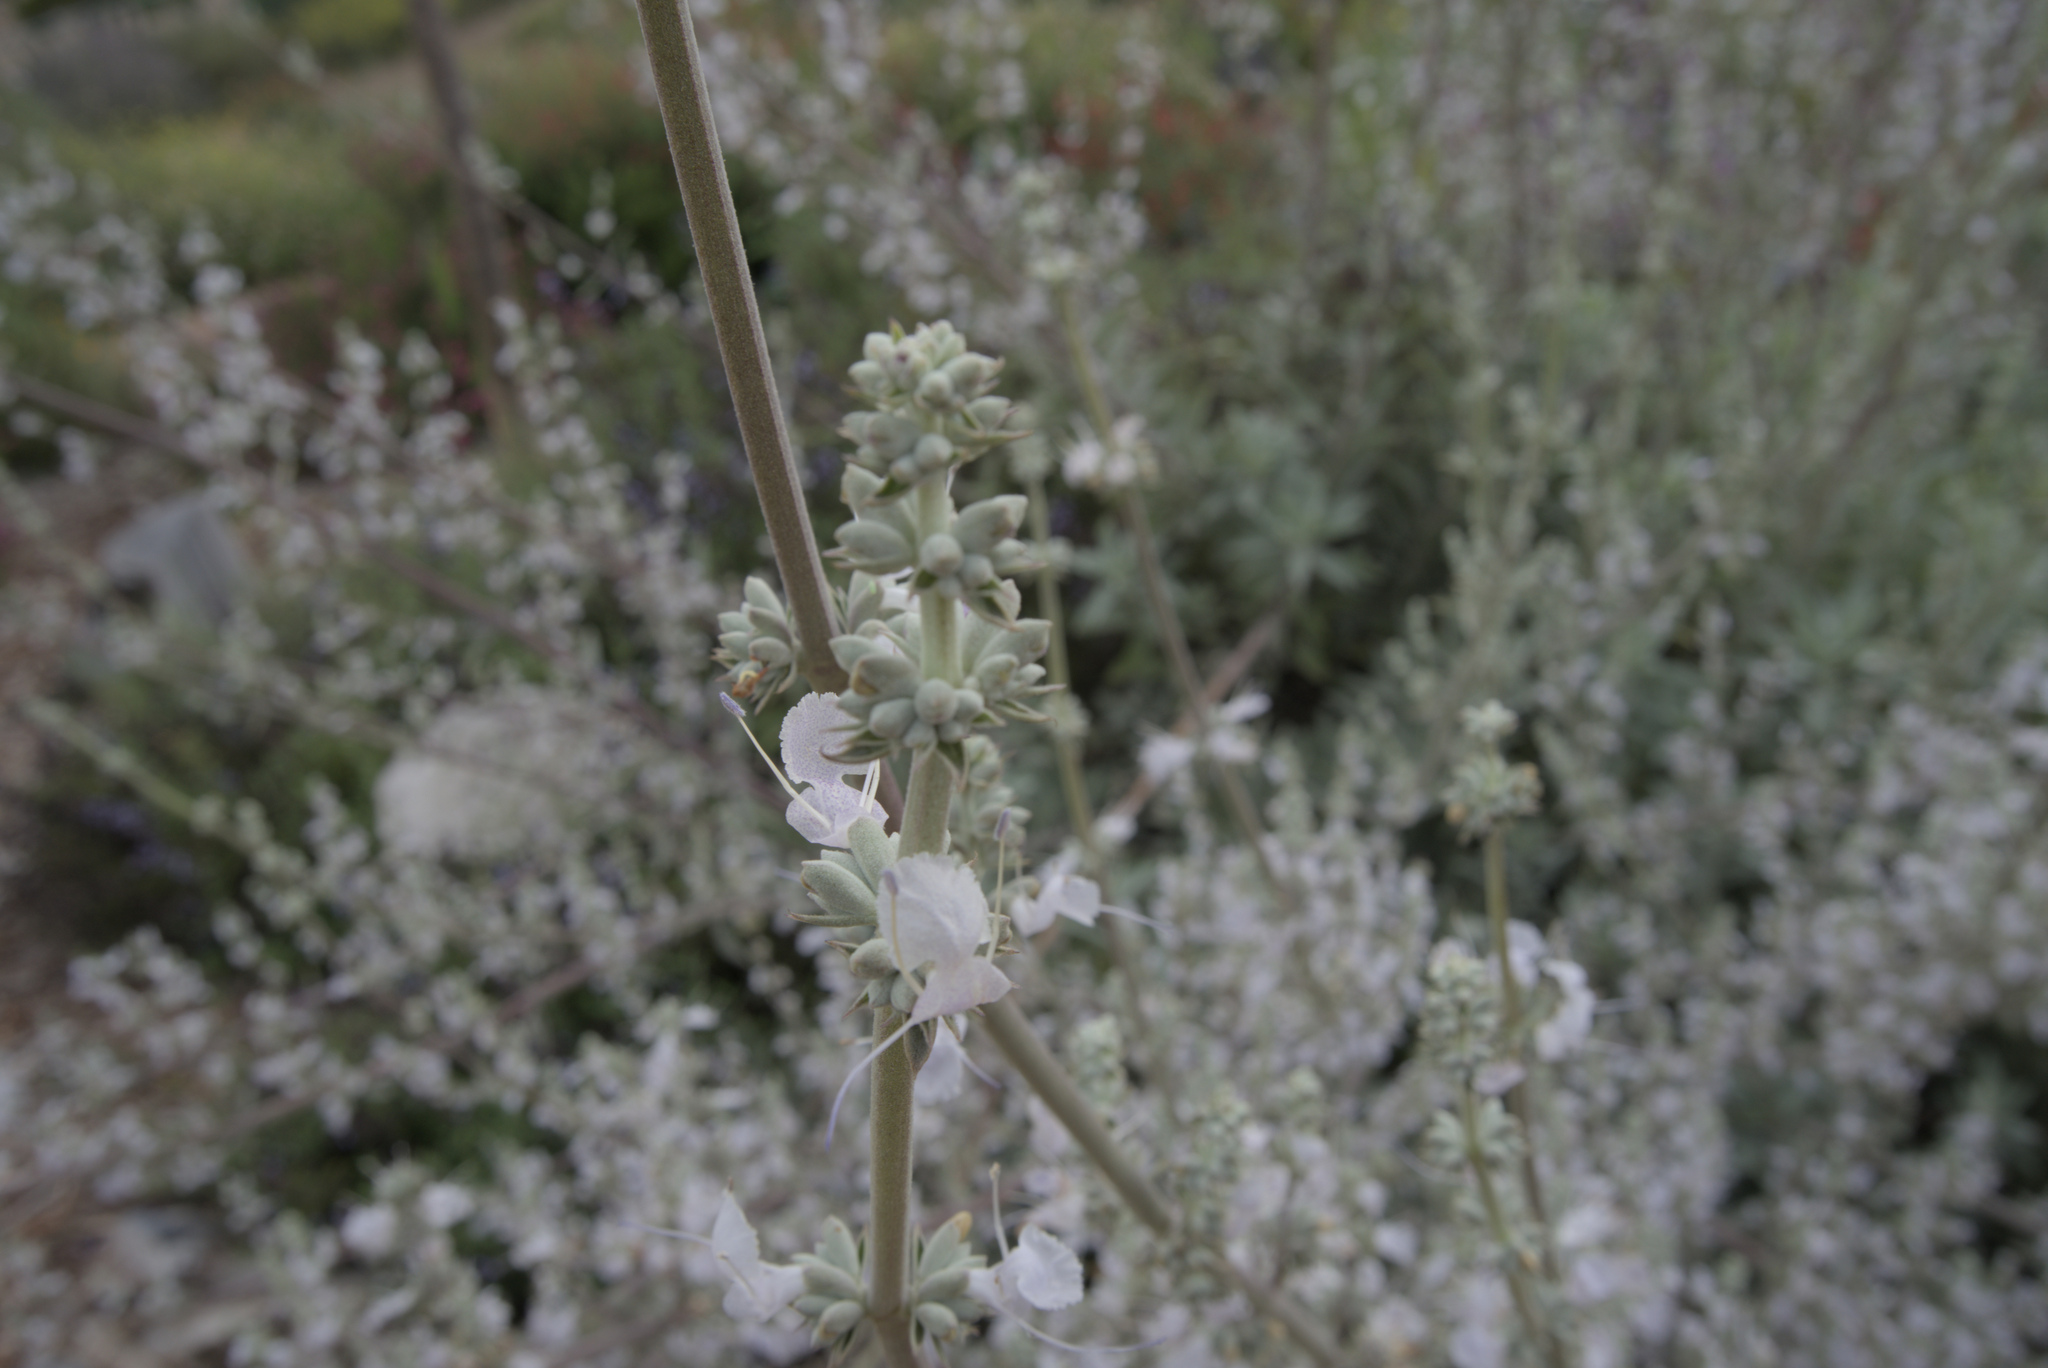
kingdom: Plantae
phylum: Tracheophyta
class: Magnoliopsida
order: Lamiales
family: Lamiaceae
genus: Salvia
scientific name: Salvia apiana
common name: White sage
